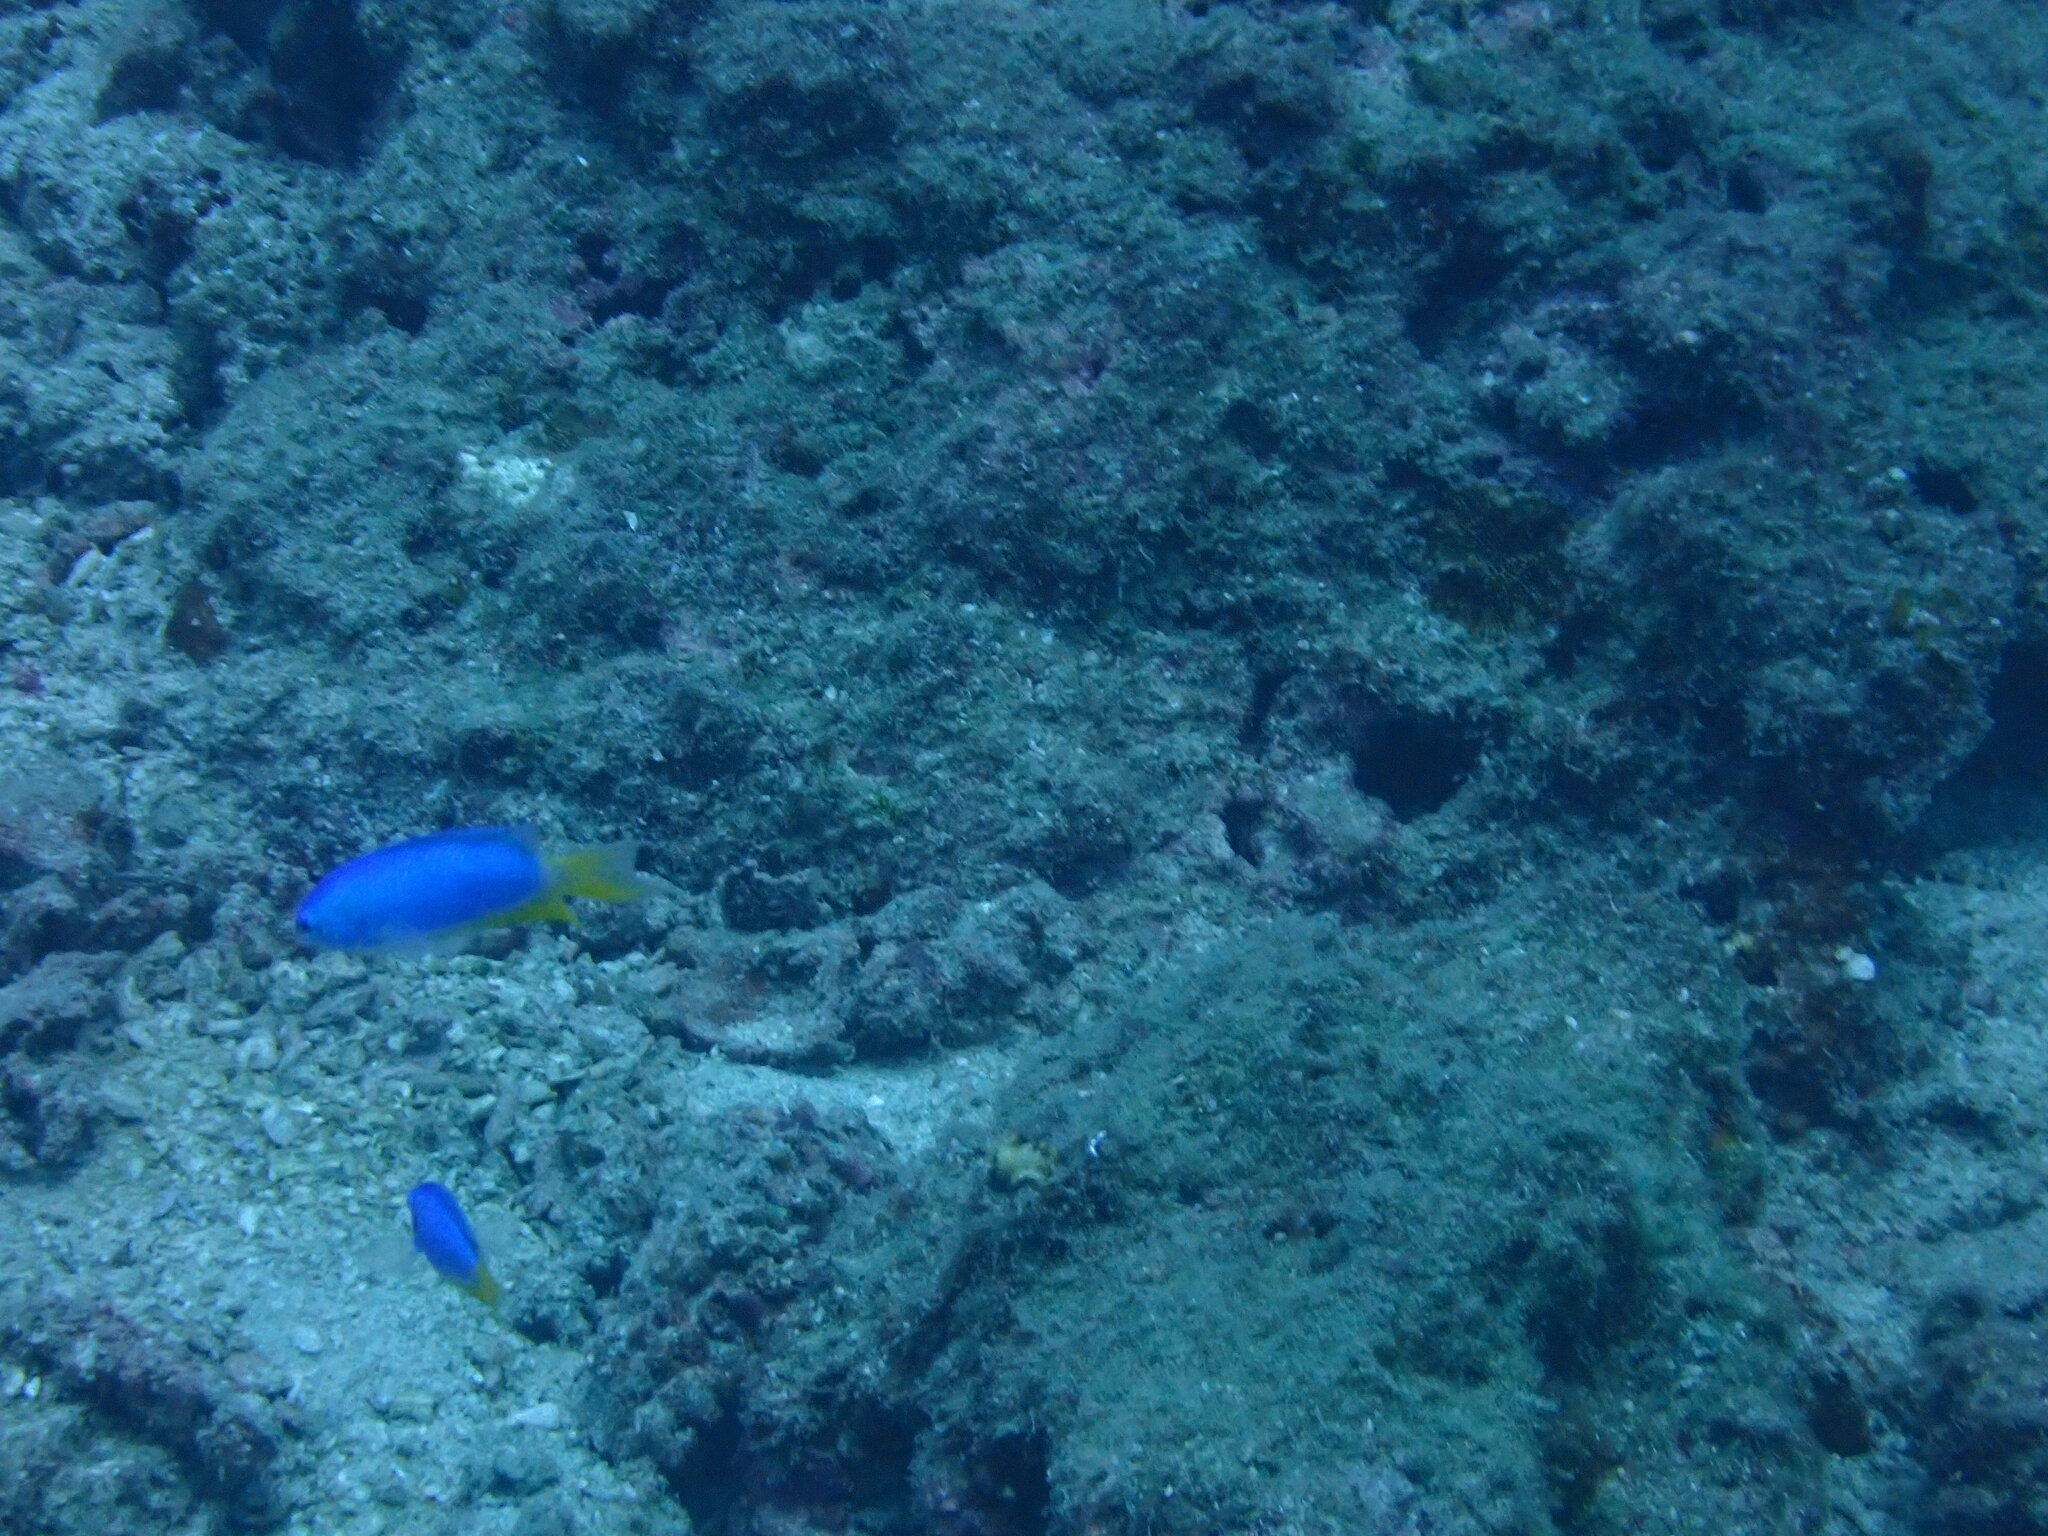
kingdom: Animalia
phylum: Chordata
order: Perciformes
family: Pomacentridae
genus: Pomacentrus
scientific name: Pomacentrus coelestis
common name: Neon damsel
